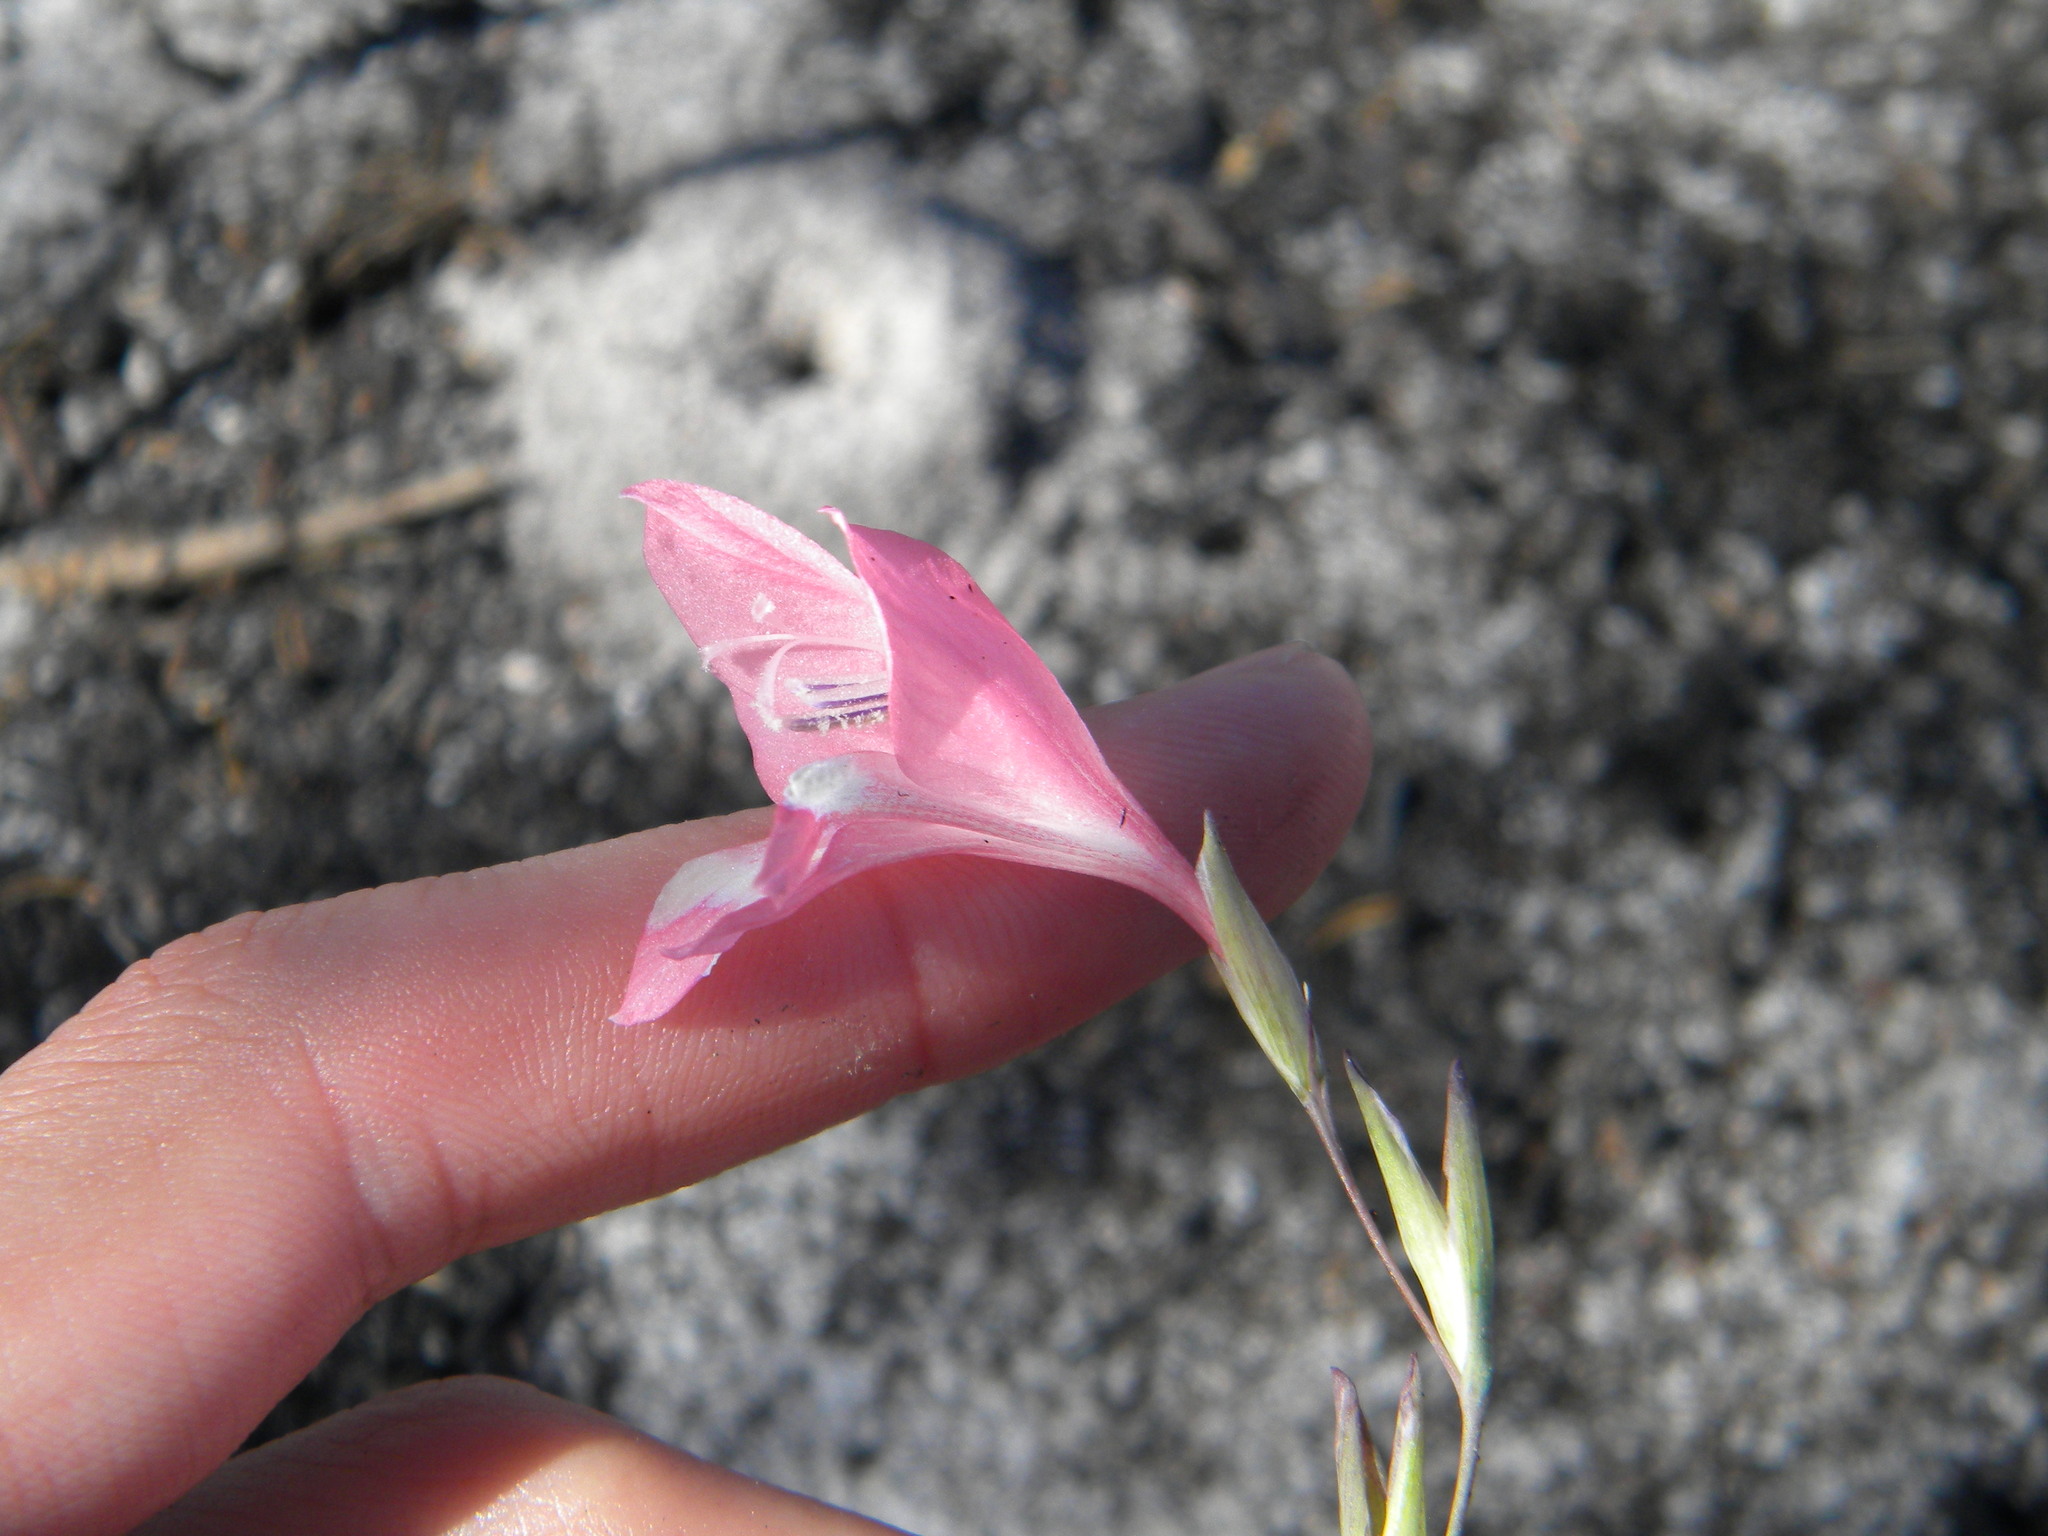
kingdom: Plantae
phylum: Tracheophyta
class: Liliopsida
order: Asparagales
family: Iridaceae
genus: Gladiolus
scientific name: Gladiolus brevifolius
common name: March pypie
